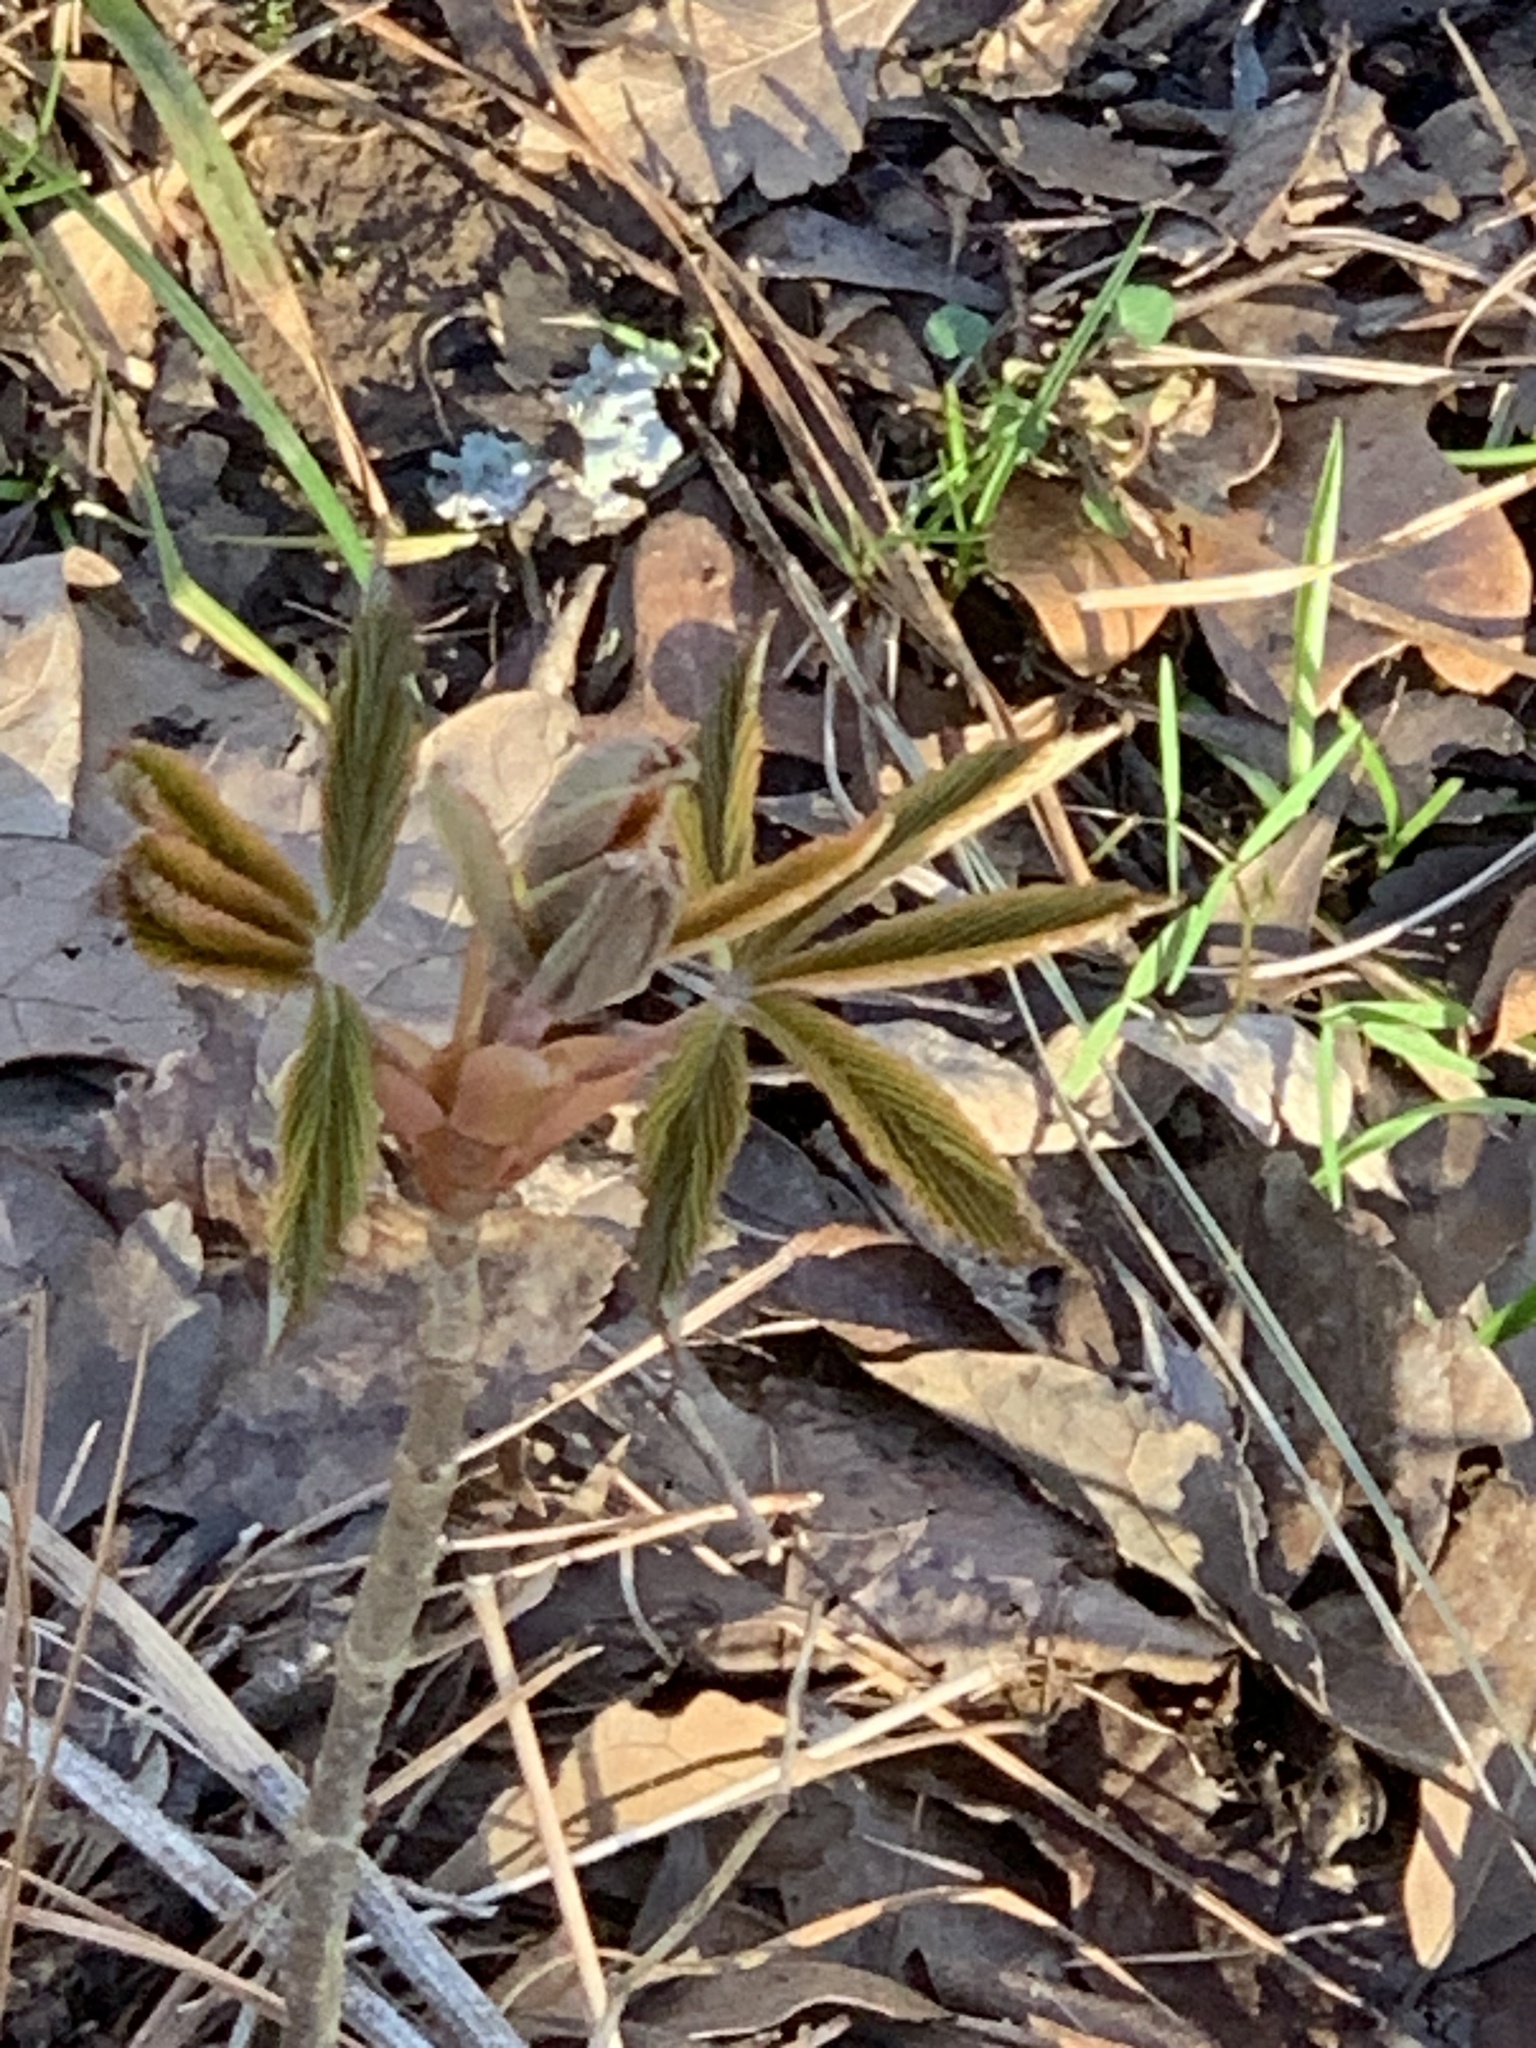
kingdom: Plantae
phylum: Tracheophyta
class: Magnoliopsida
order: Sapindales
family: Sapindaceae
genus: Aesculus
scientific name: Aesculus pavia
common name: Red buckeye
